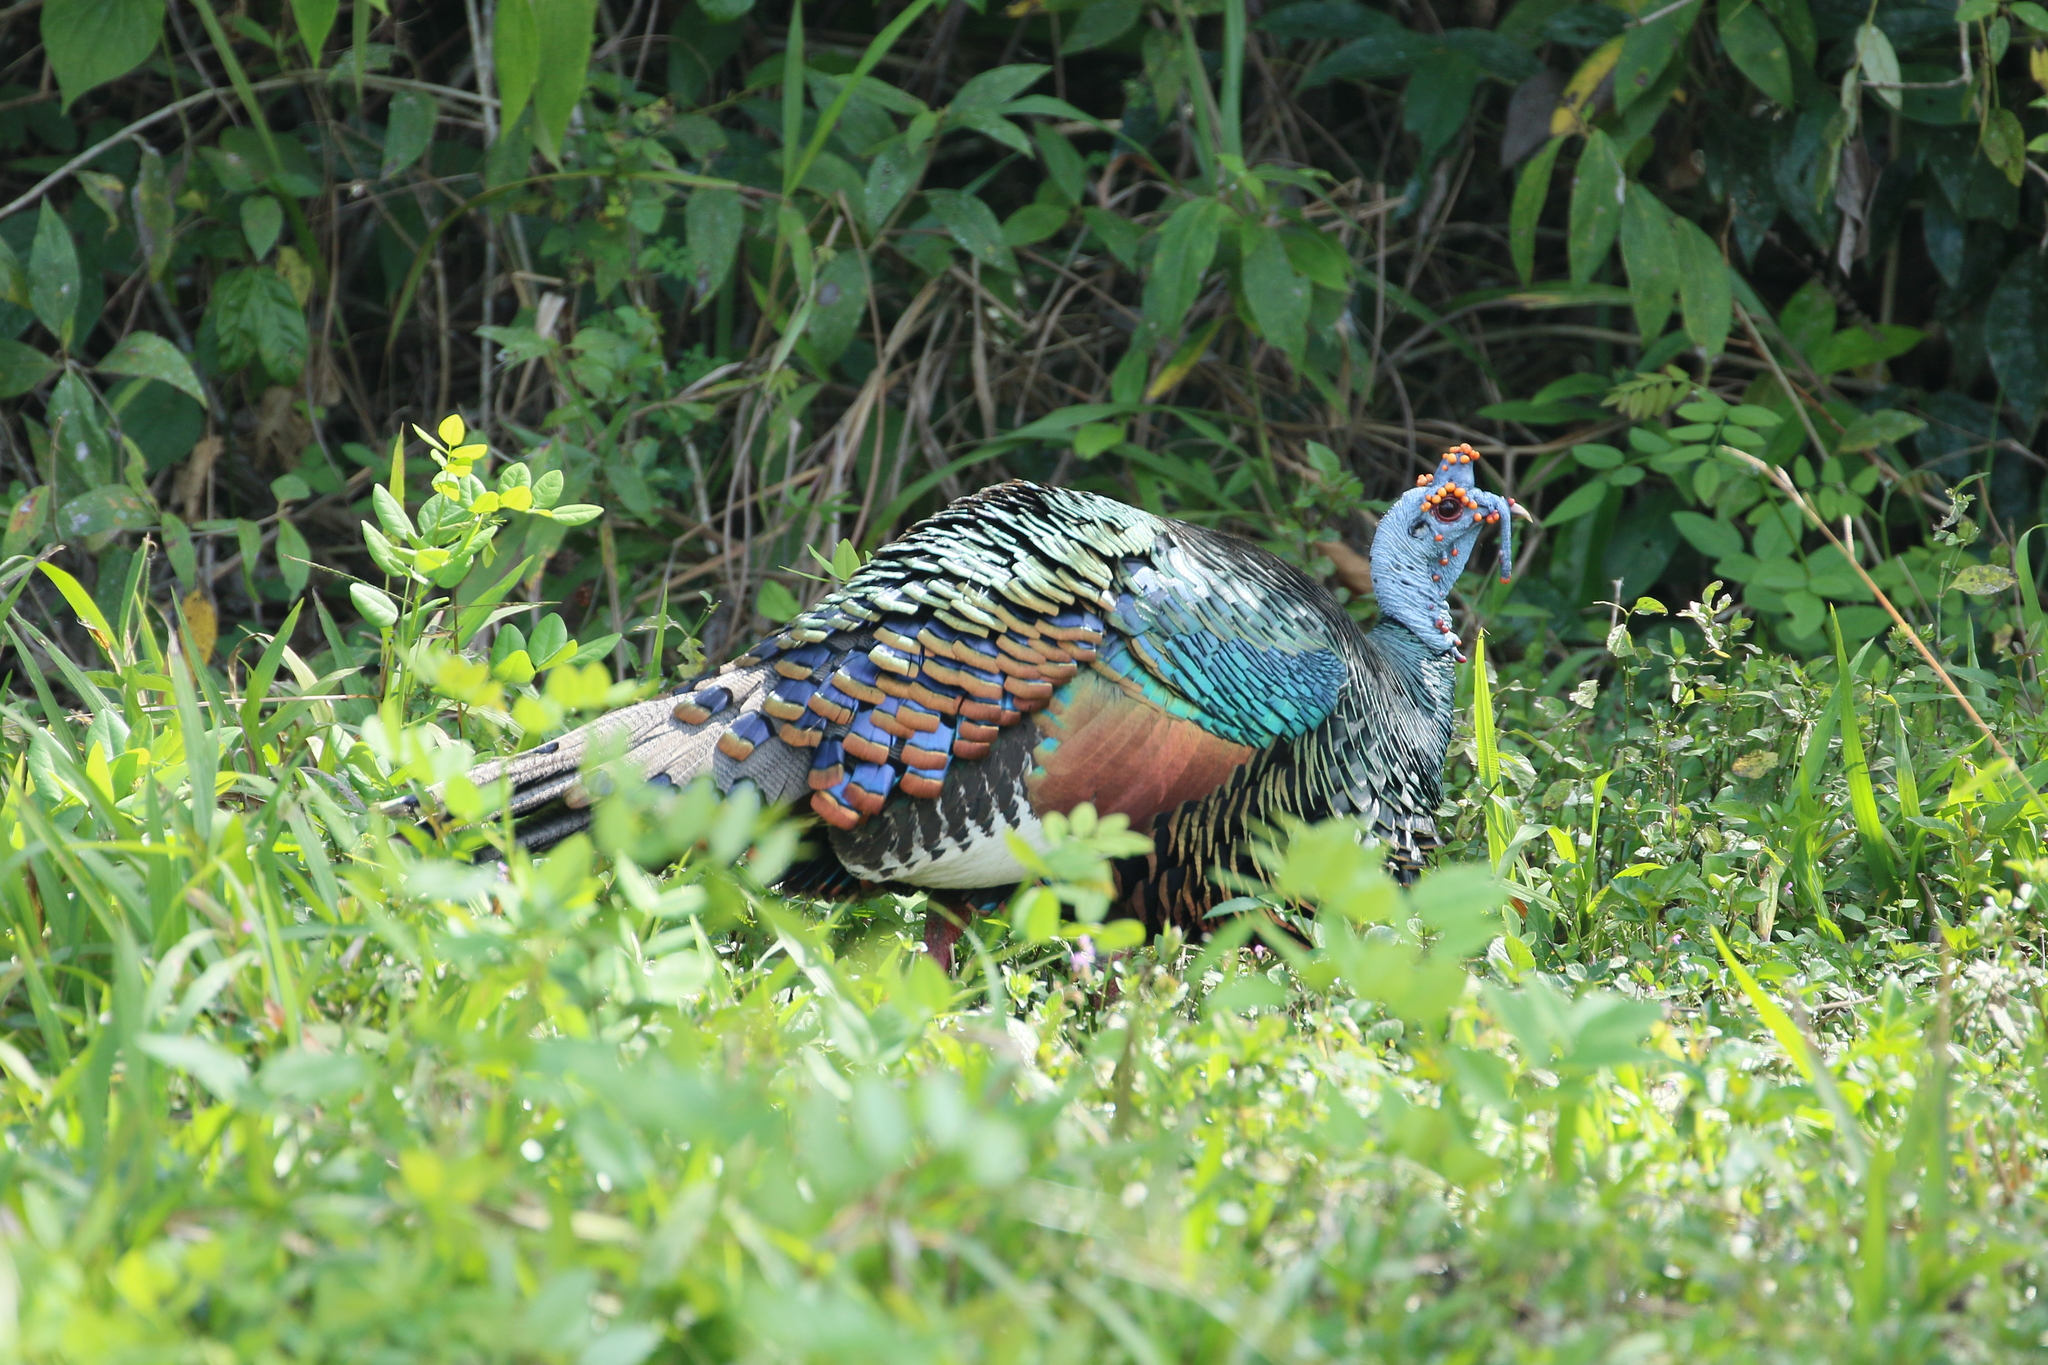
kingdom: Animalia
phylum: Chordata
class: Aves
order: Galliformes
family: Phasianidae
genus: Meleagris
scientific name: Meleagris ocellata
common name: Ocellated turkey
